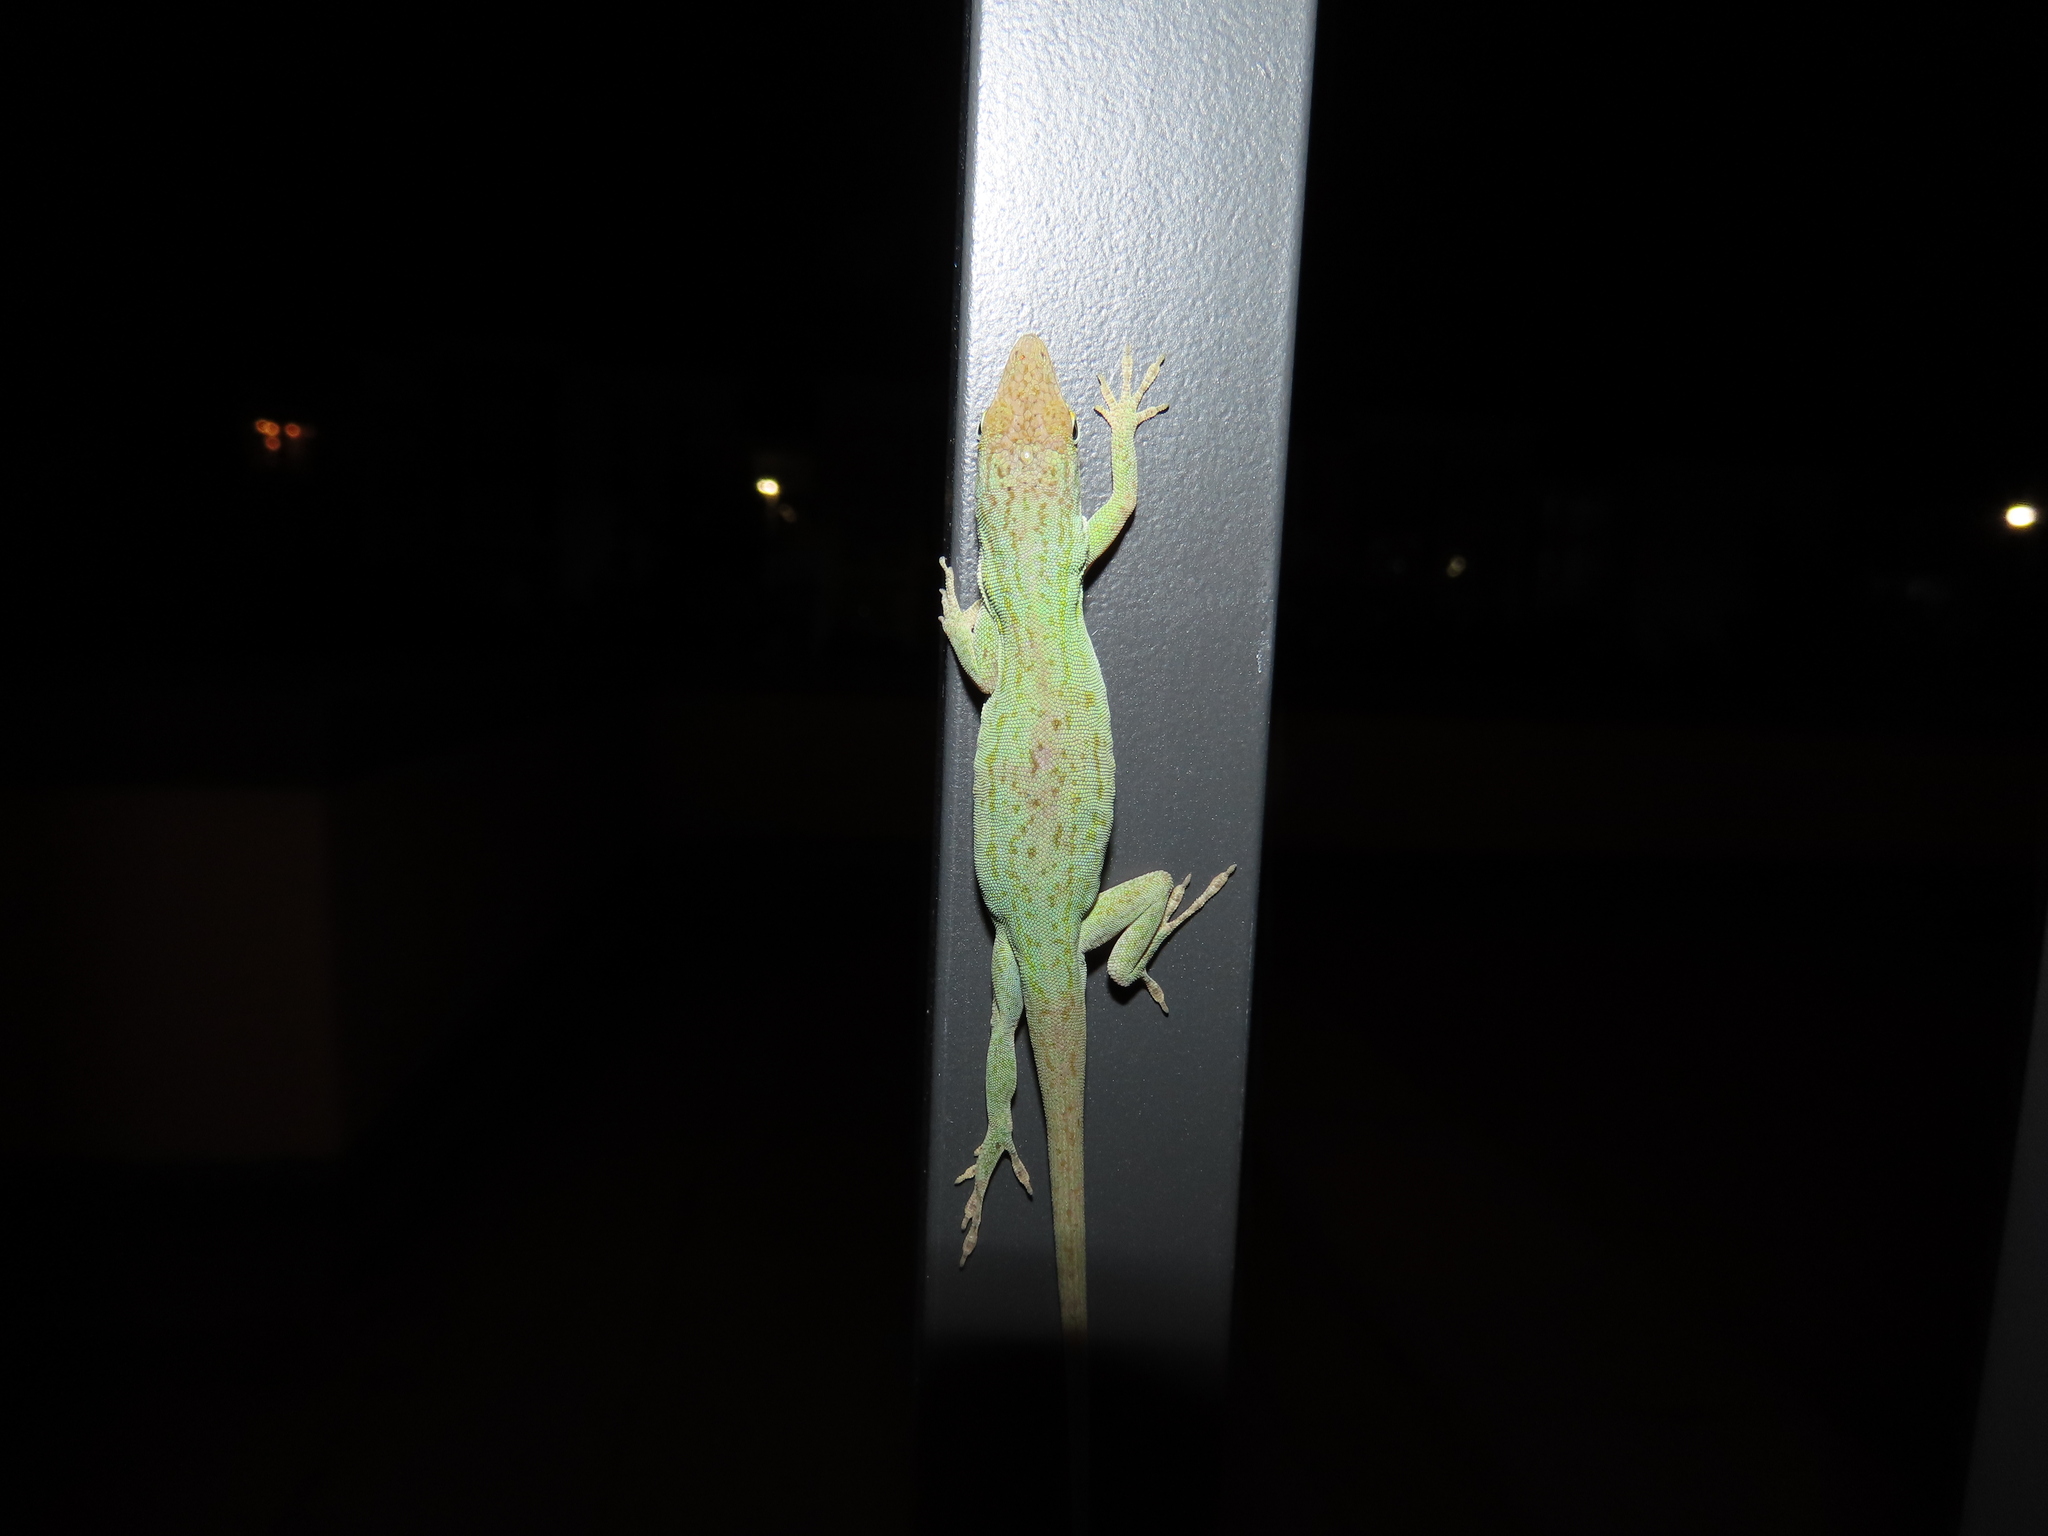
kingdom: Animalia
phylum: Chordata
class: Squamata
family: Dactyloidae
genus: Anolis
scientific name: Anolis carolinensis
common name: Green anole
